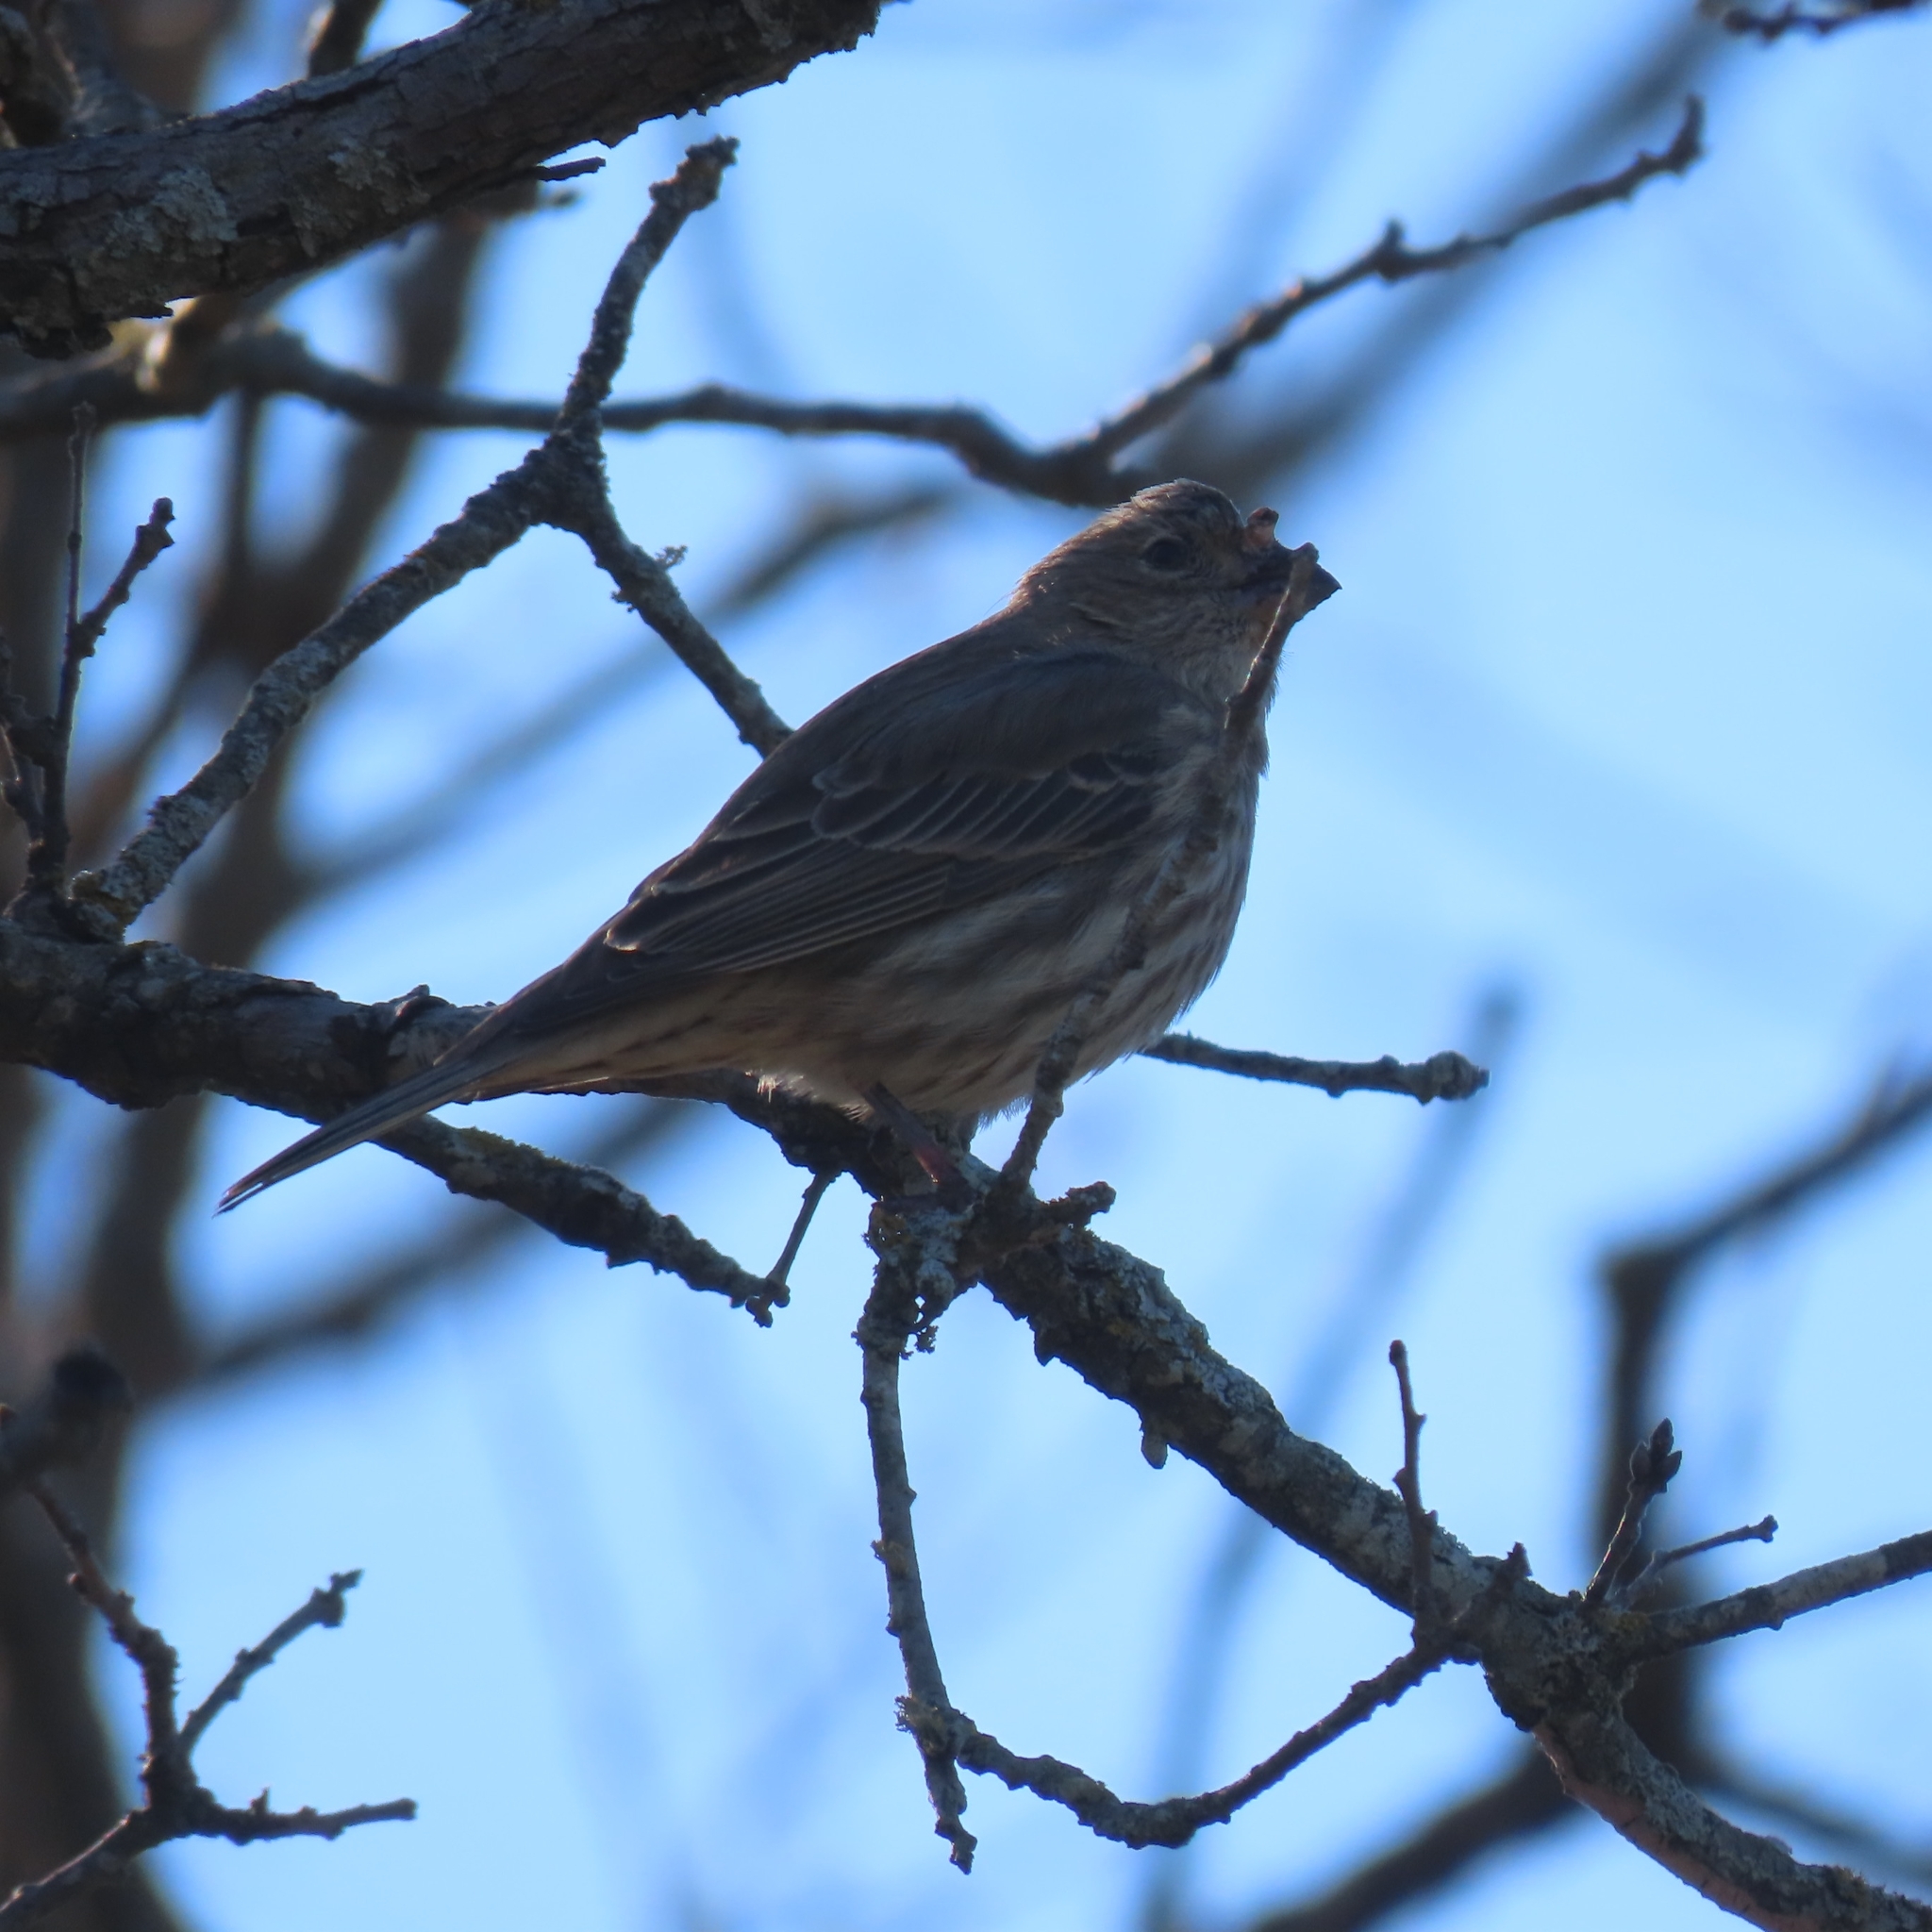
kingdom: Animalia
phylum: Chordata
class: Aves
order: Passeriformes
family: Fringillidae
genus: Haemorhous
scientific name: Haemorhous mexicanus
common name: House finch
